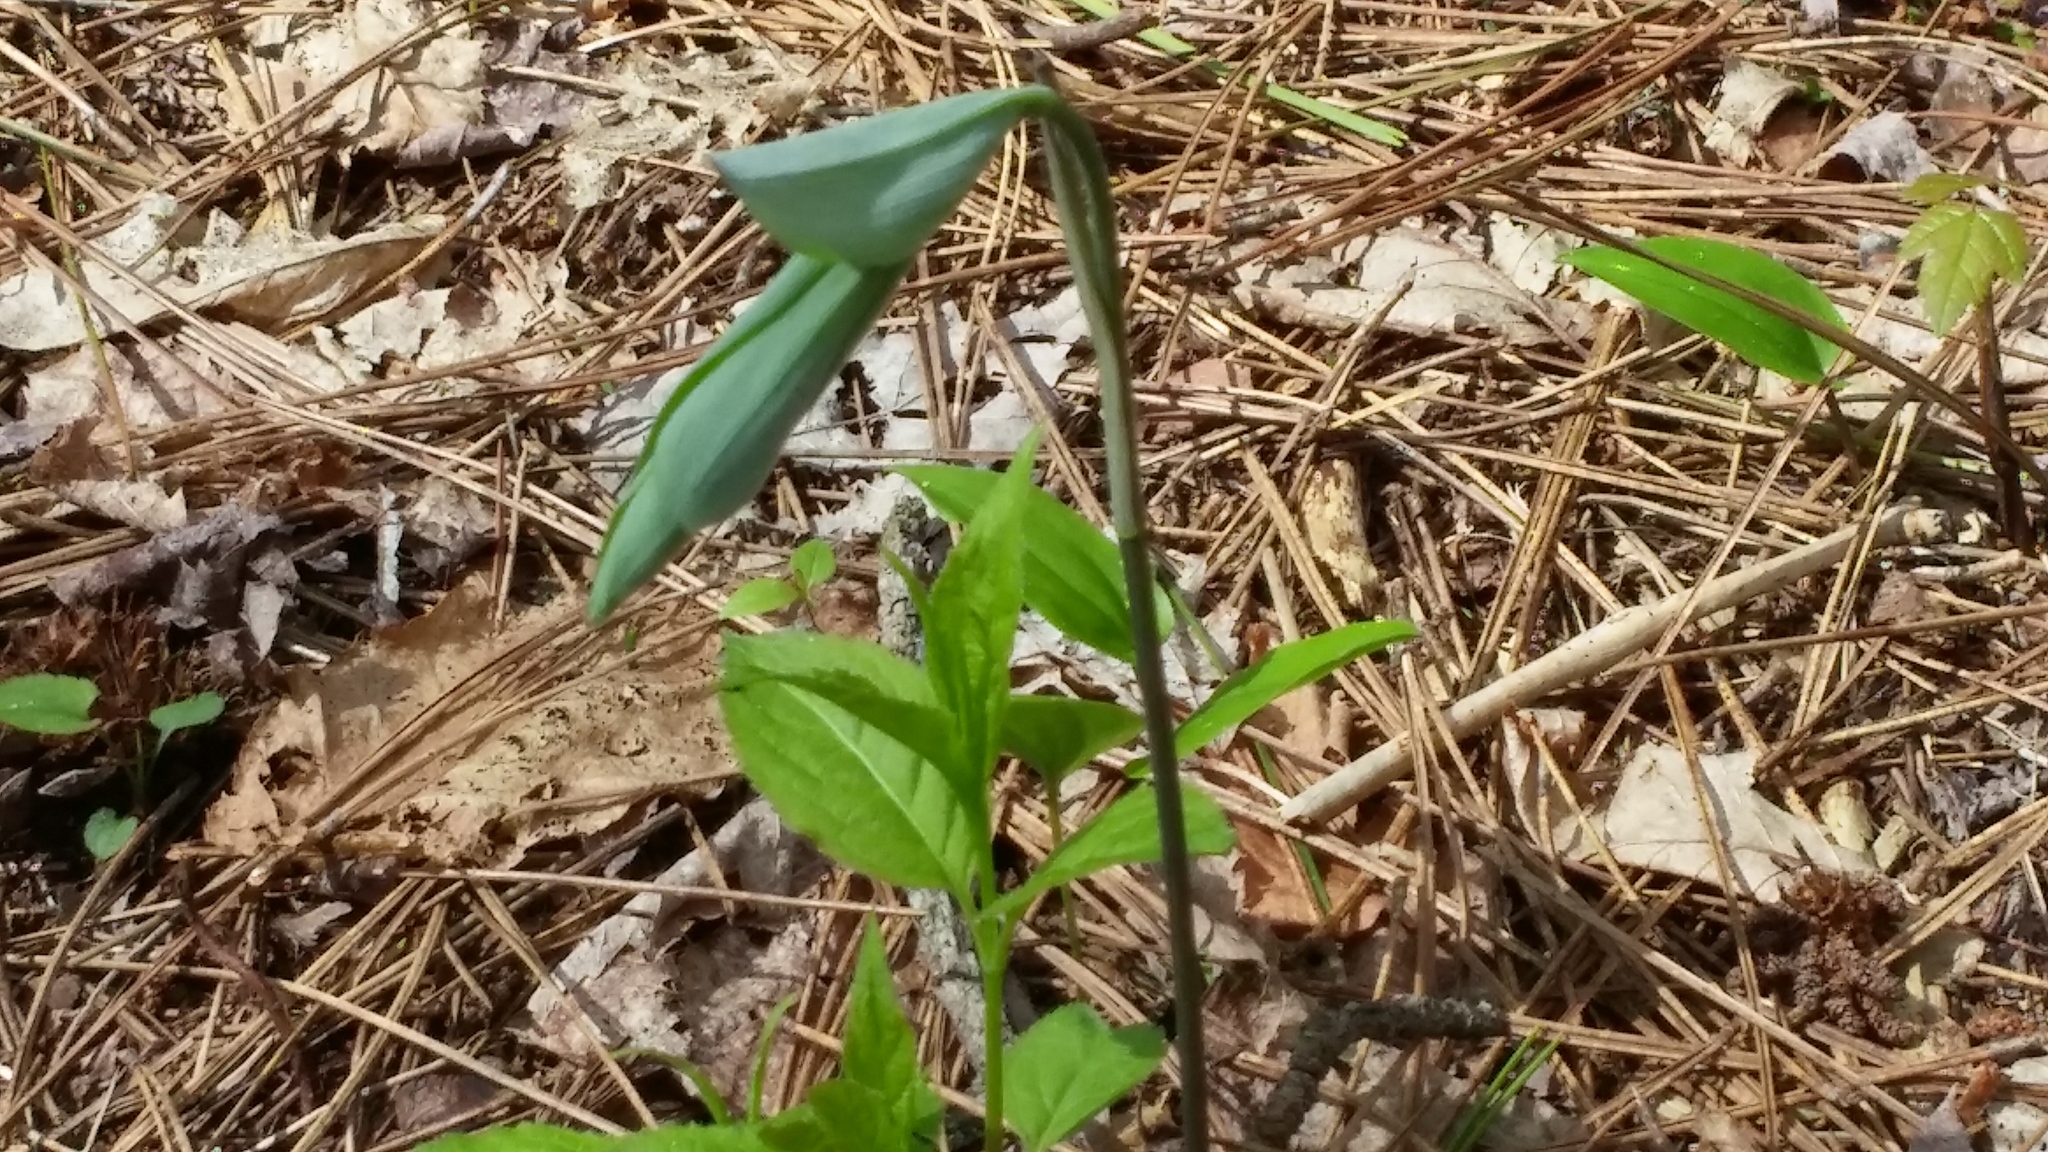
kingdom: Plantae
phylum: Tracheophyta
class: Liliopsida
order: Asparagales
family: Asparagaceae
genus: Polygonatum
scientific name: Polygonatum pubescens
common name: Downy solomon's seal
